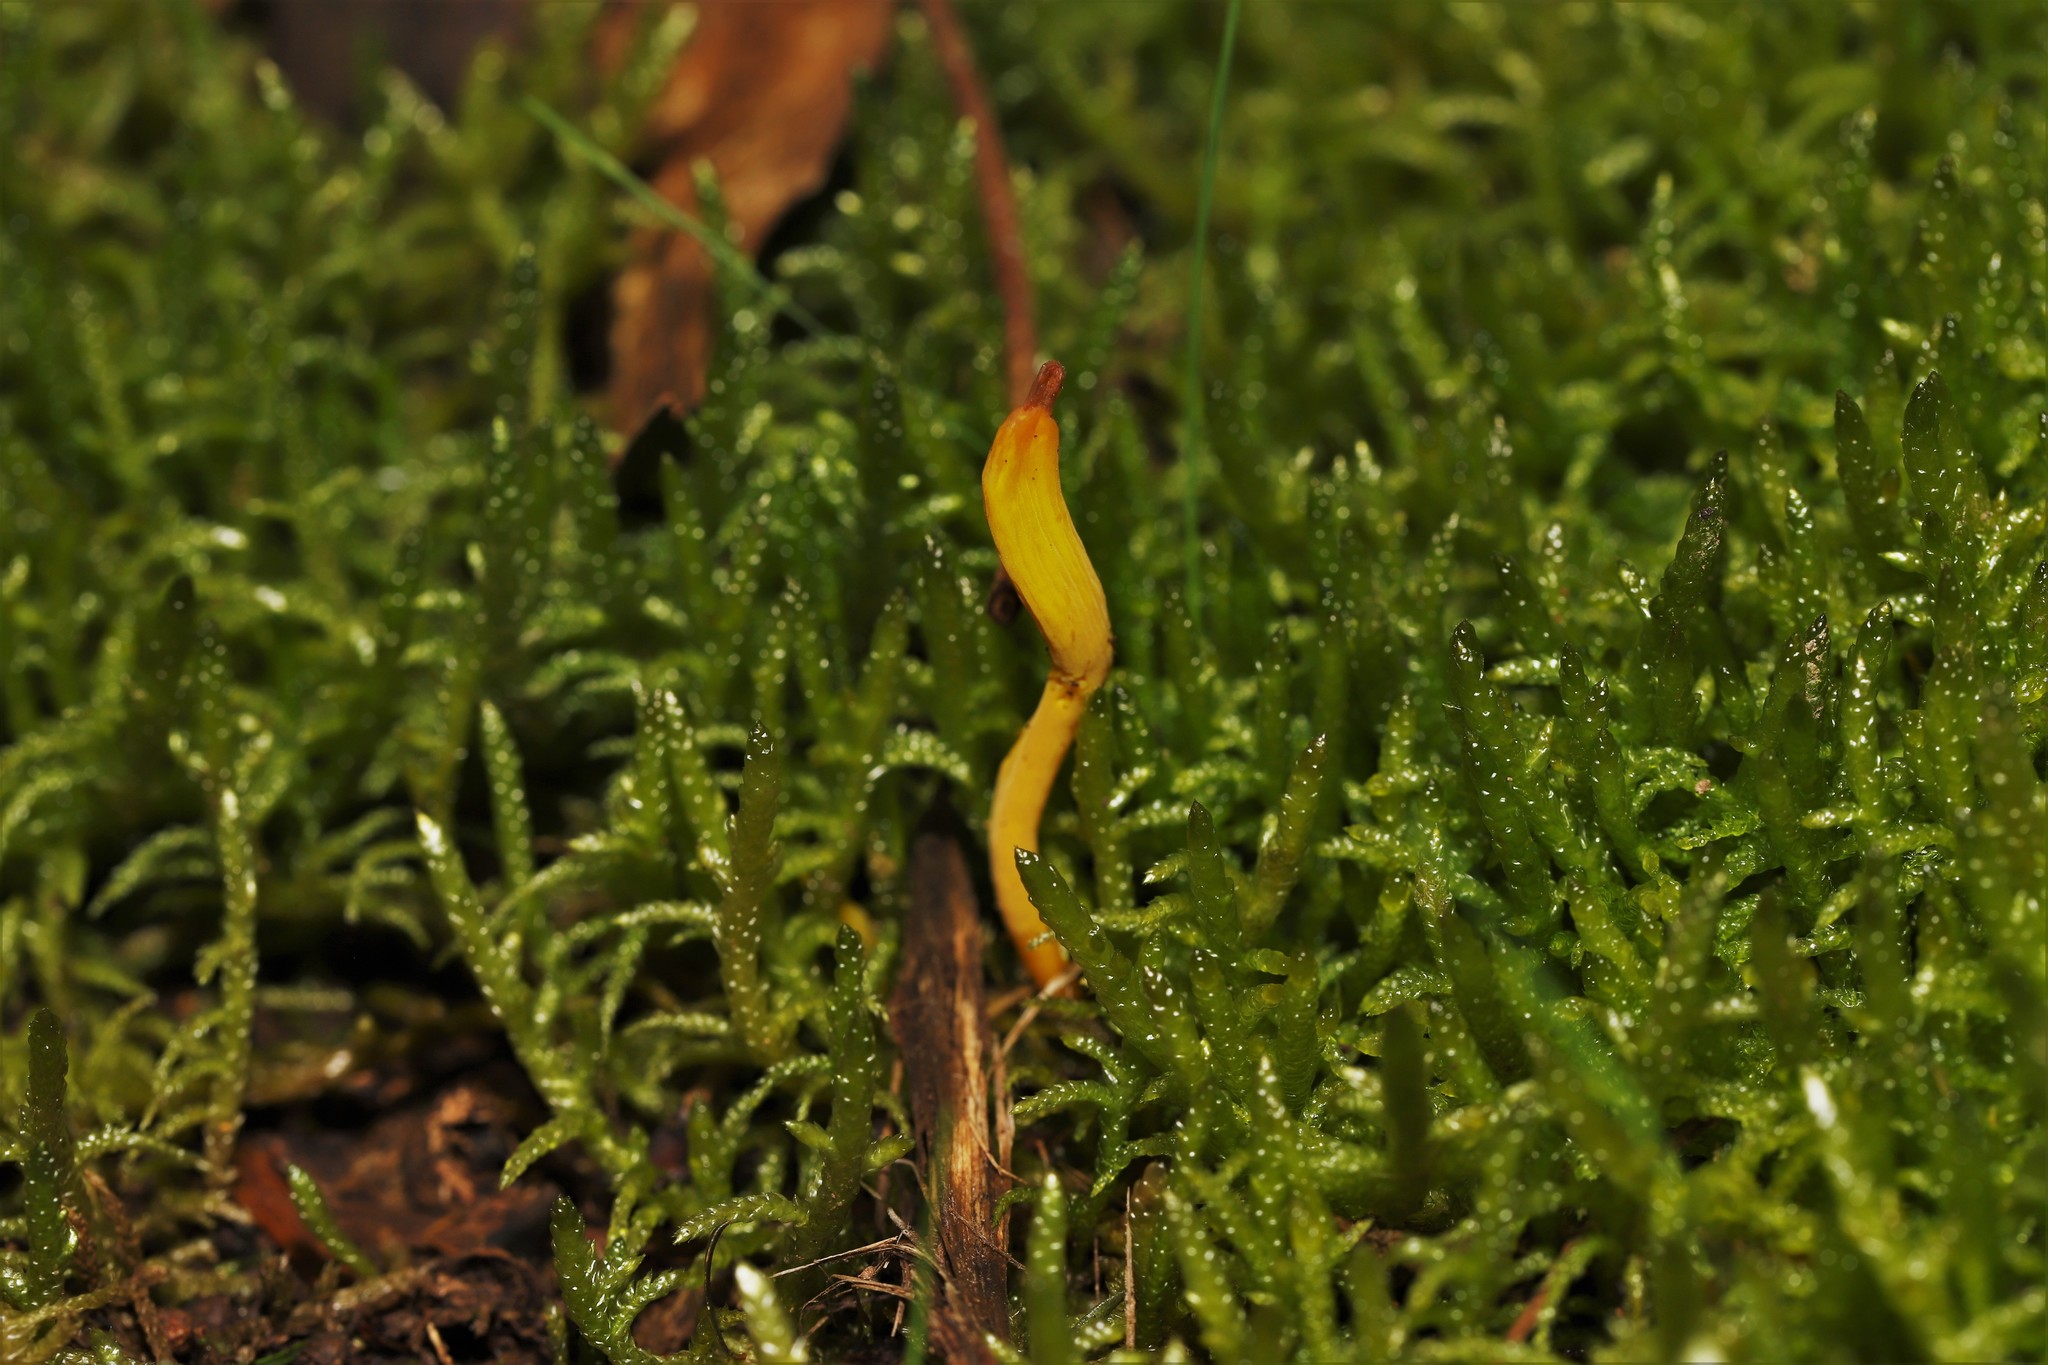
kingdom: Fungi
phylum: Basidiomycota
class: Agaricomycetes
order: Agaricales
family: Clavariaceae
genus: Clavulinopsis
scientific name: Clavulinopsis amoena
